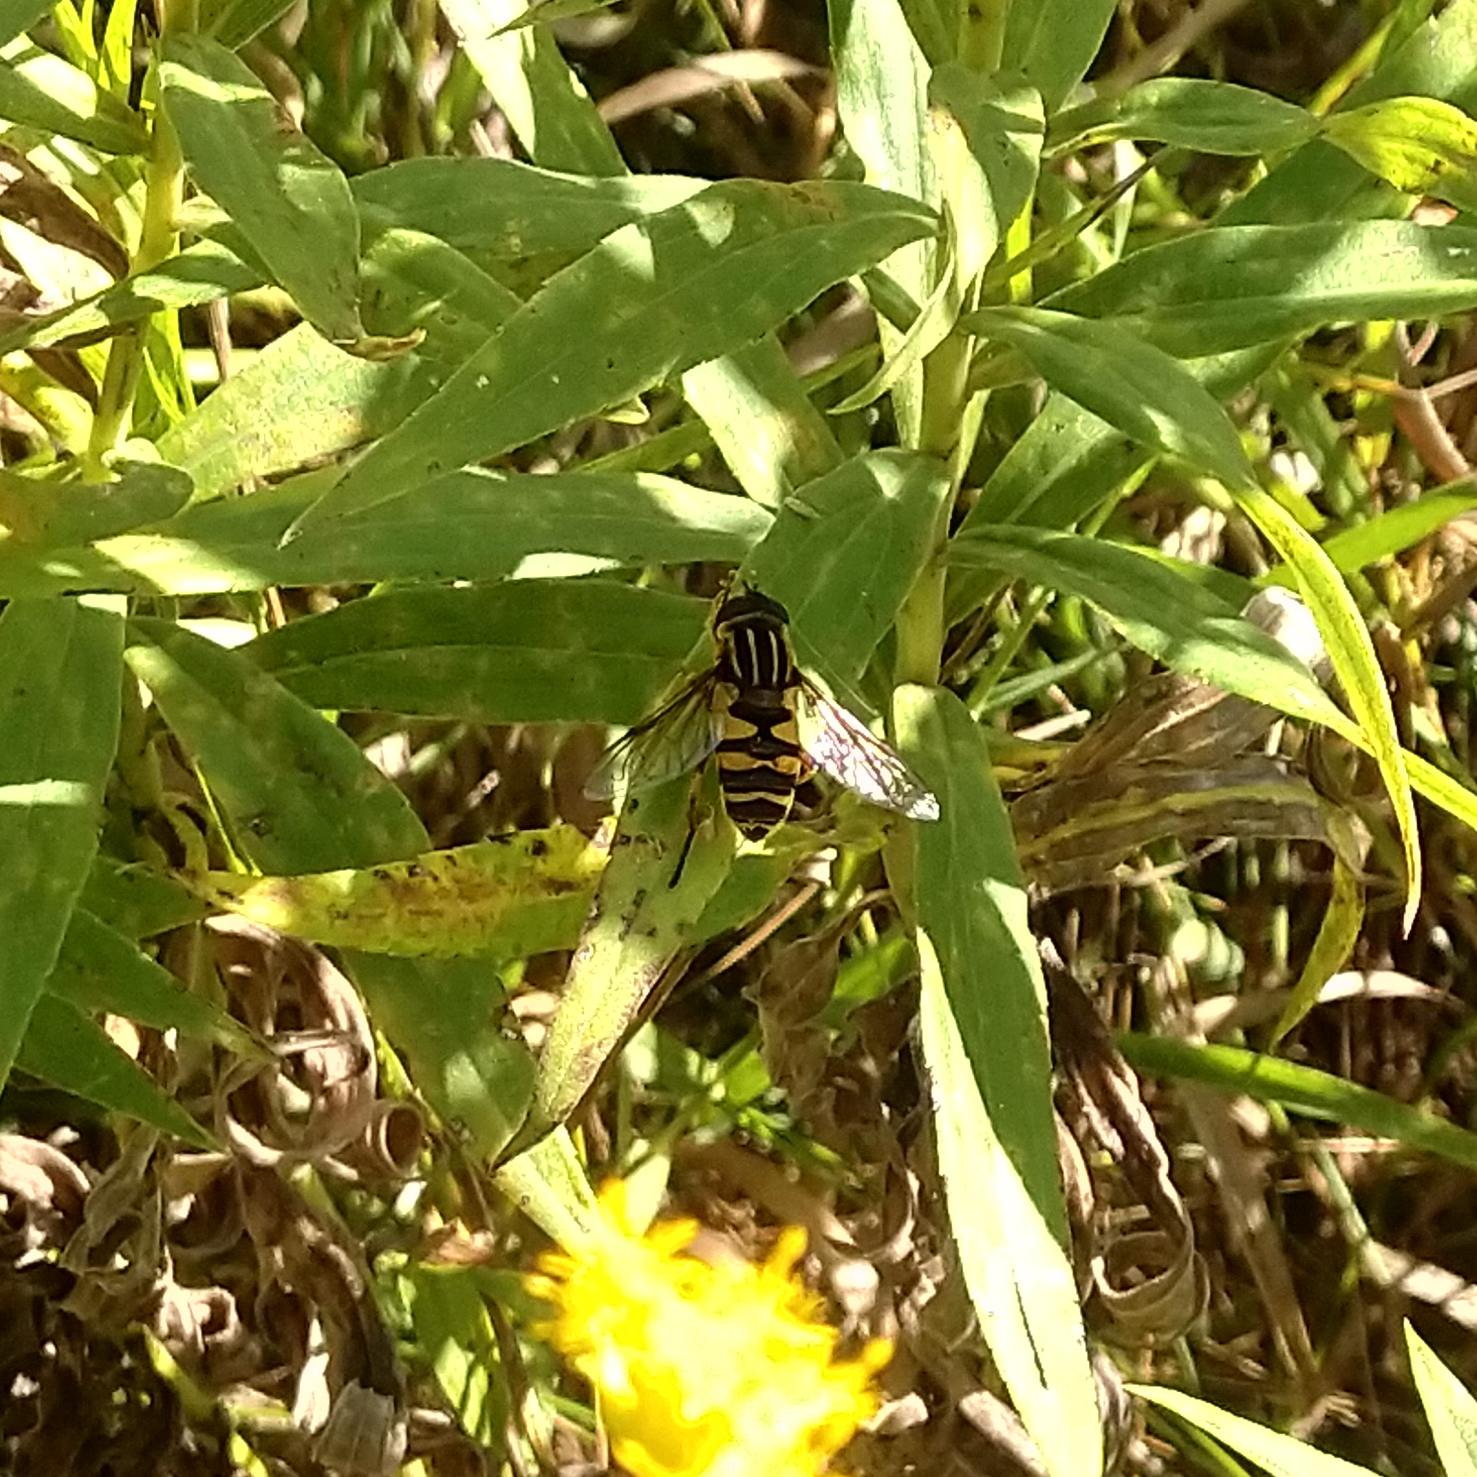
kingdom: Animalia
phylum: Arthropoda
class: Insecta
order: Diptera
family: Syrphidae
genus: Helophilus
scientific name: Helophilus fasciatus
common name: Narrow-headed marsh fly
